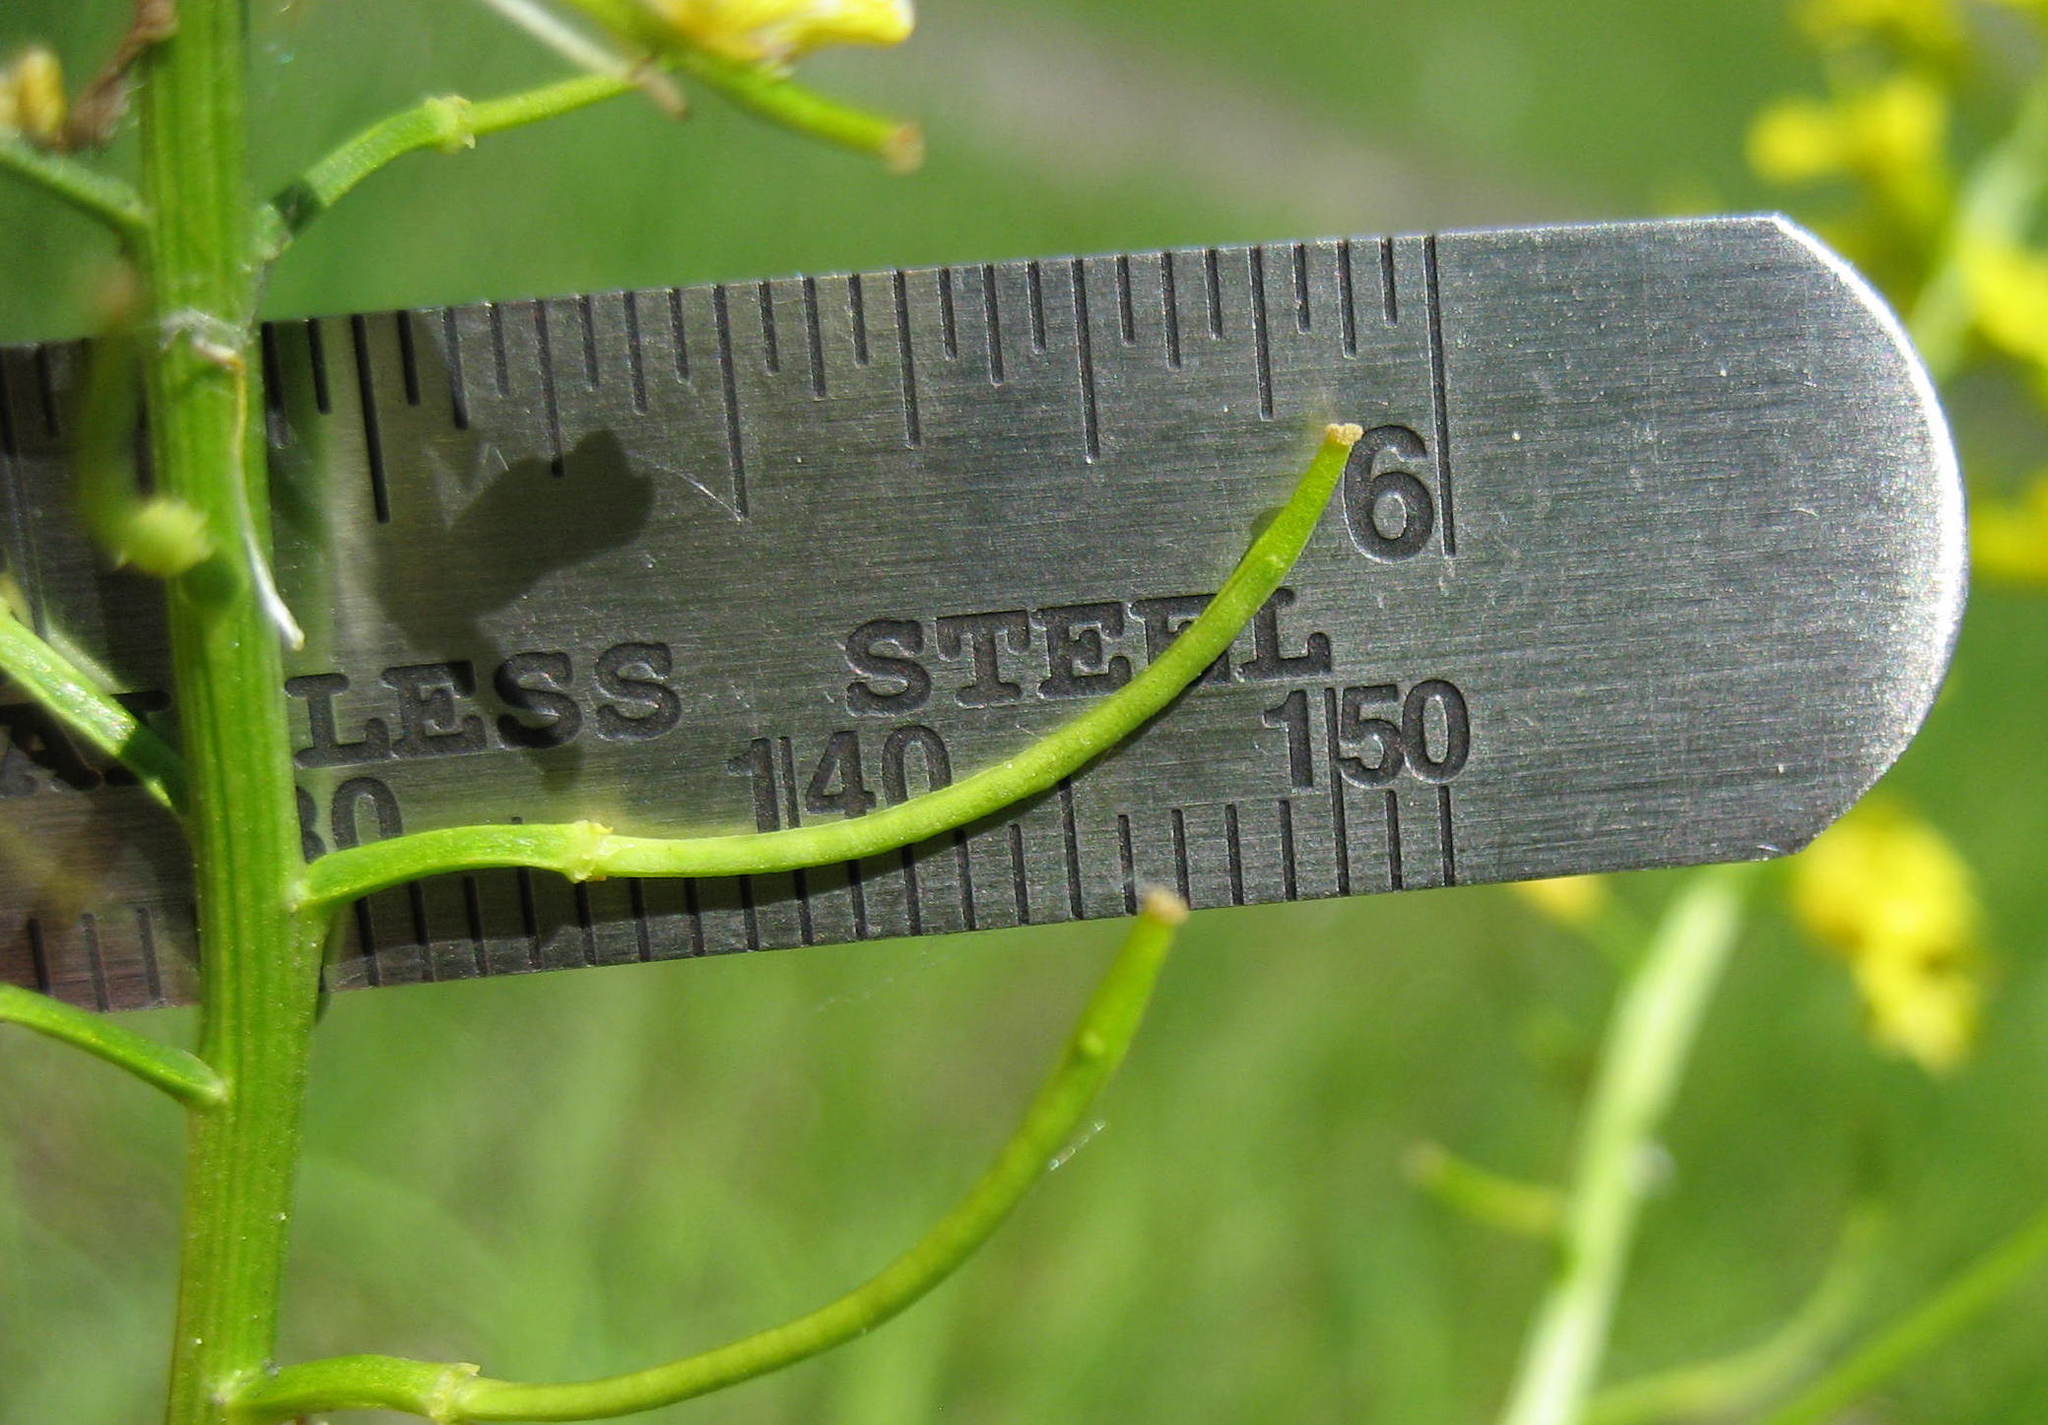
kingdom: Plantae
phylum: Tracheophyta
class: Magnoliopsida
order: Brassicales
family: Brassicaceae
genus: Barbarea
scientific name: Barbarea vulgaris
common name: Cressy-greens
